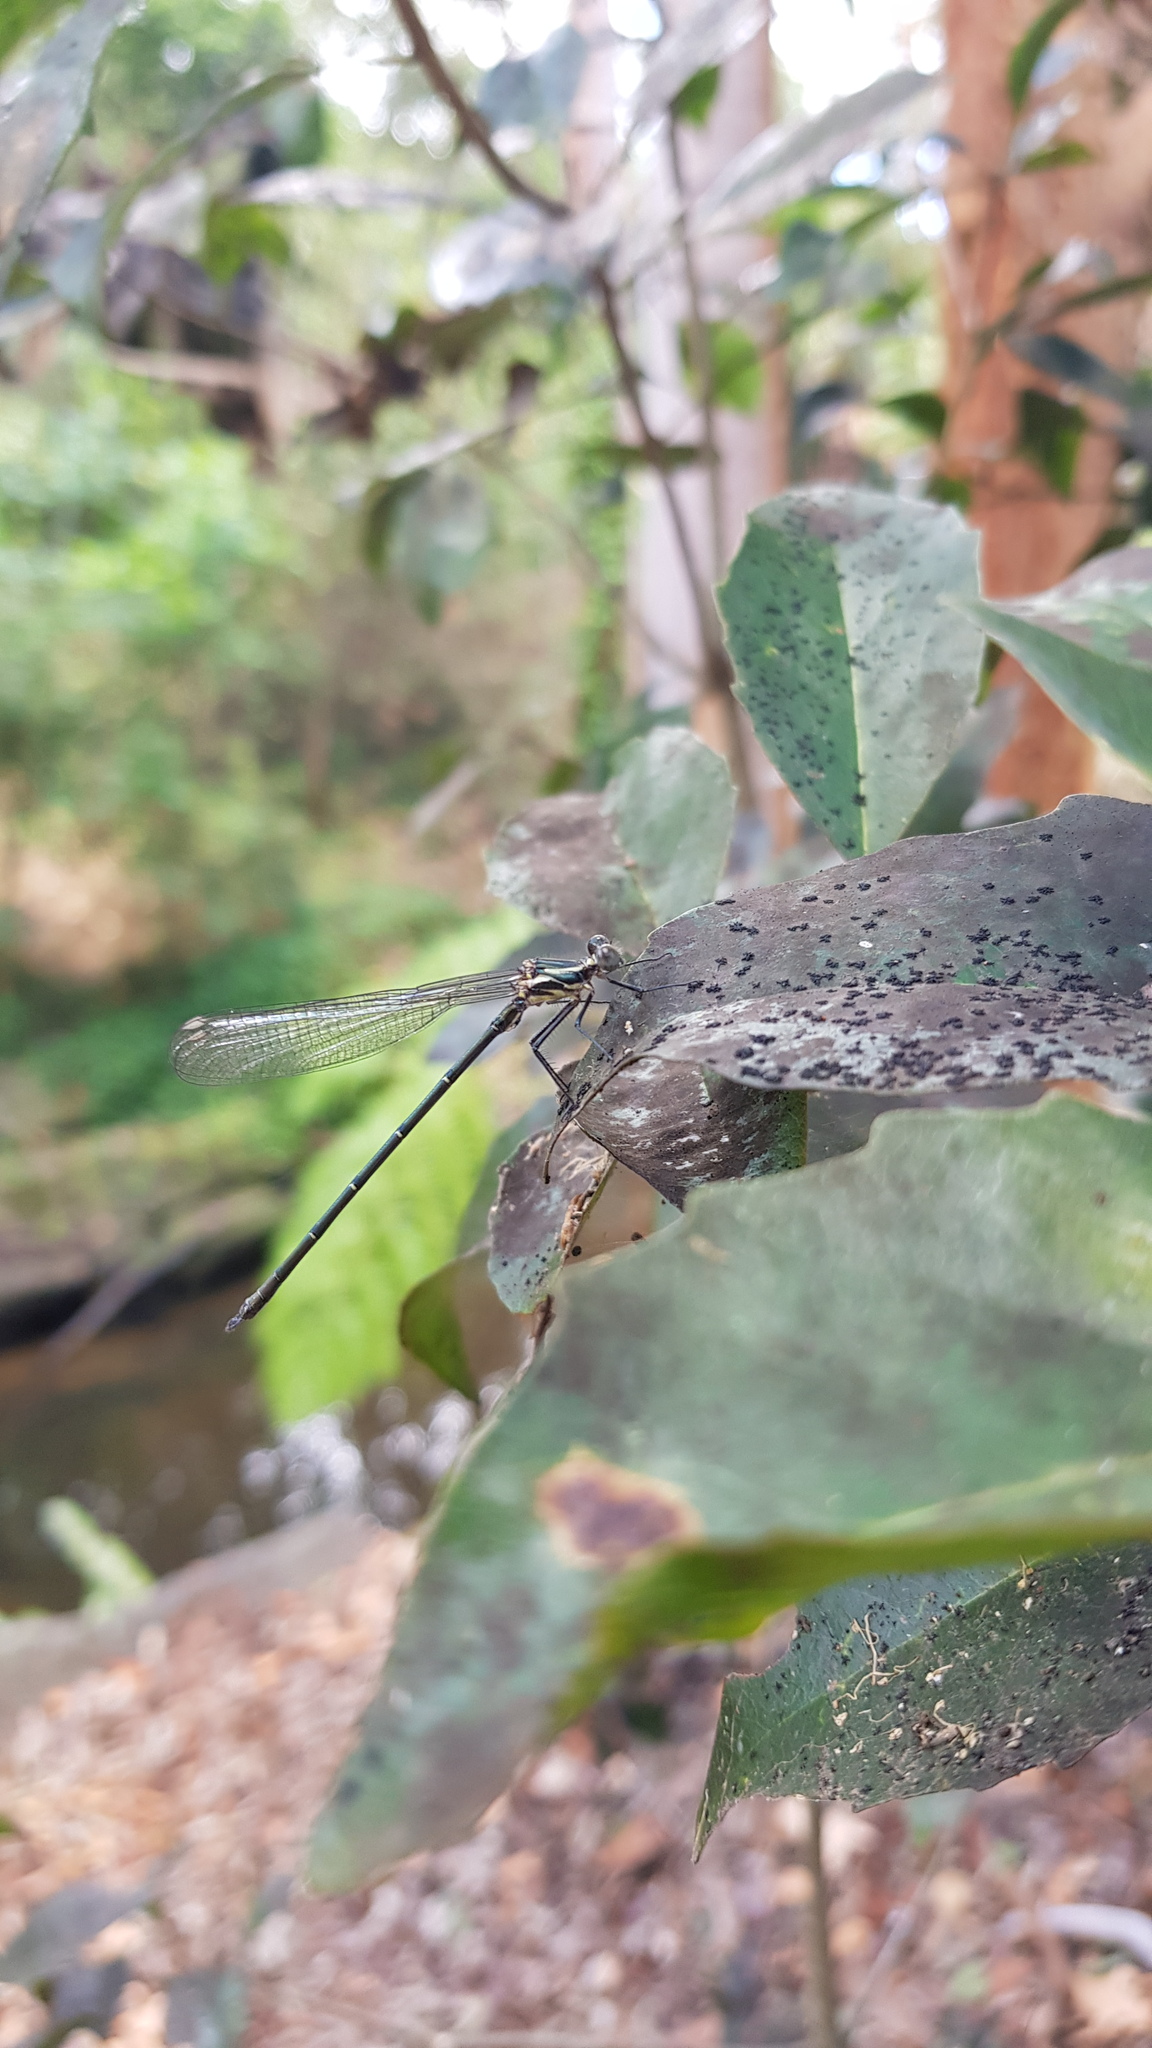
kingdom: Animalia
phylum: Arthropoda
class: Insecta
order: Odonata
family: Argiolestidae
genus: Austroargiolestes
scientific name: Austroargiolestes icteromelas
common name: Common flatwing
